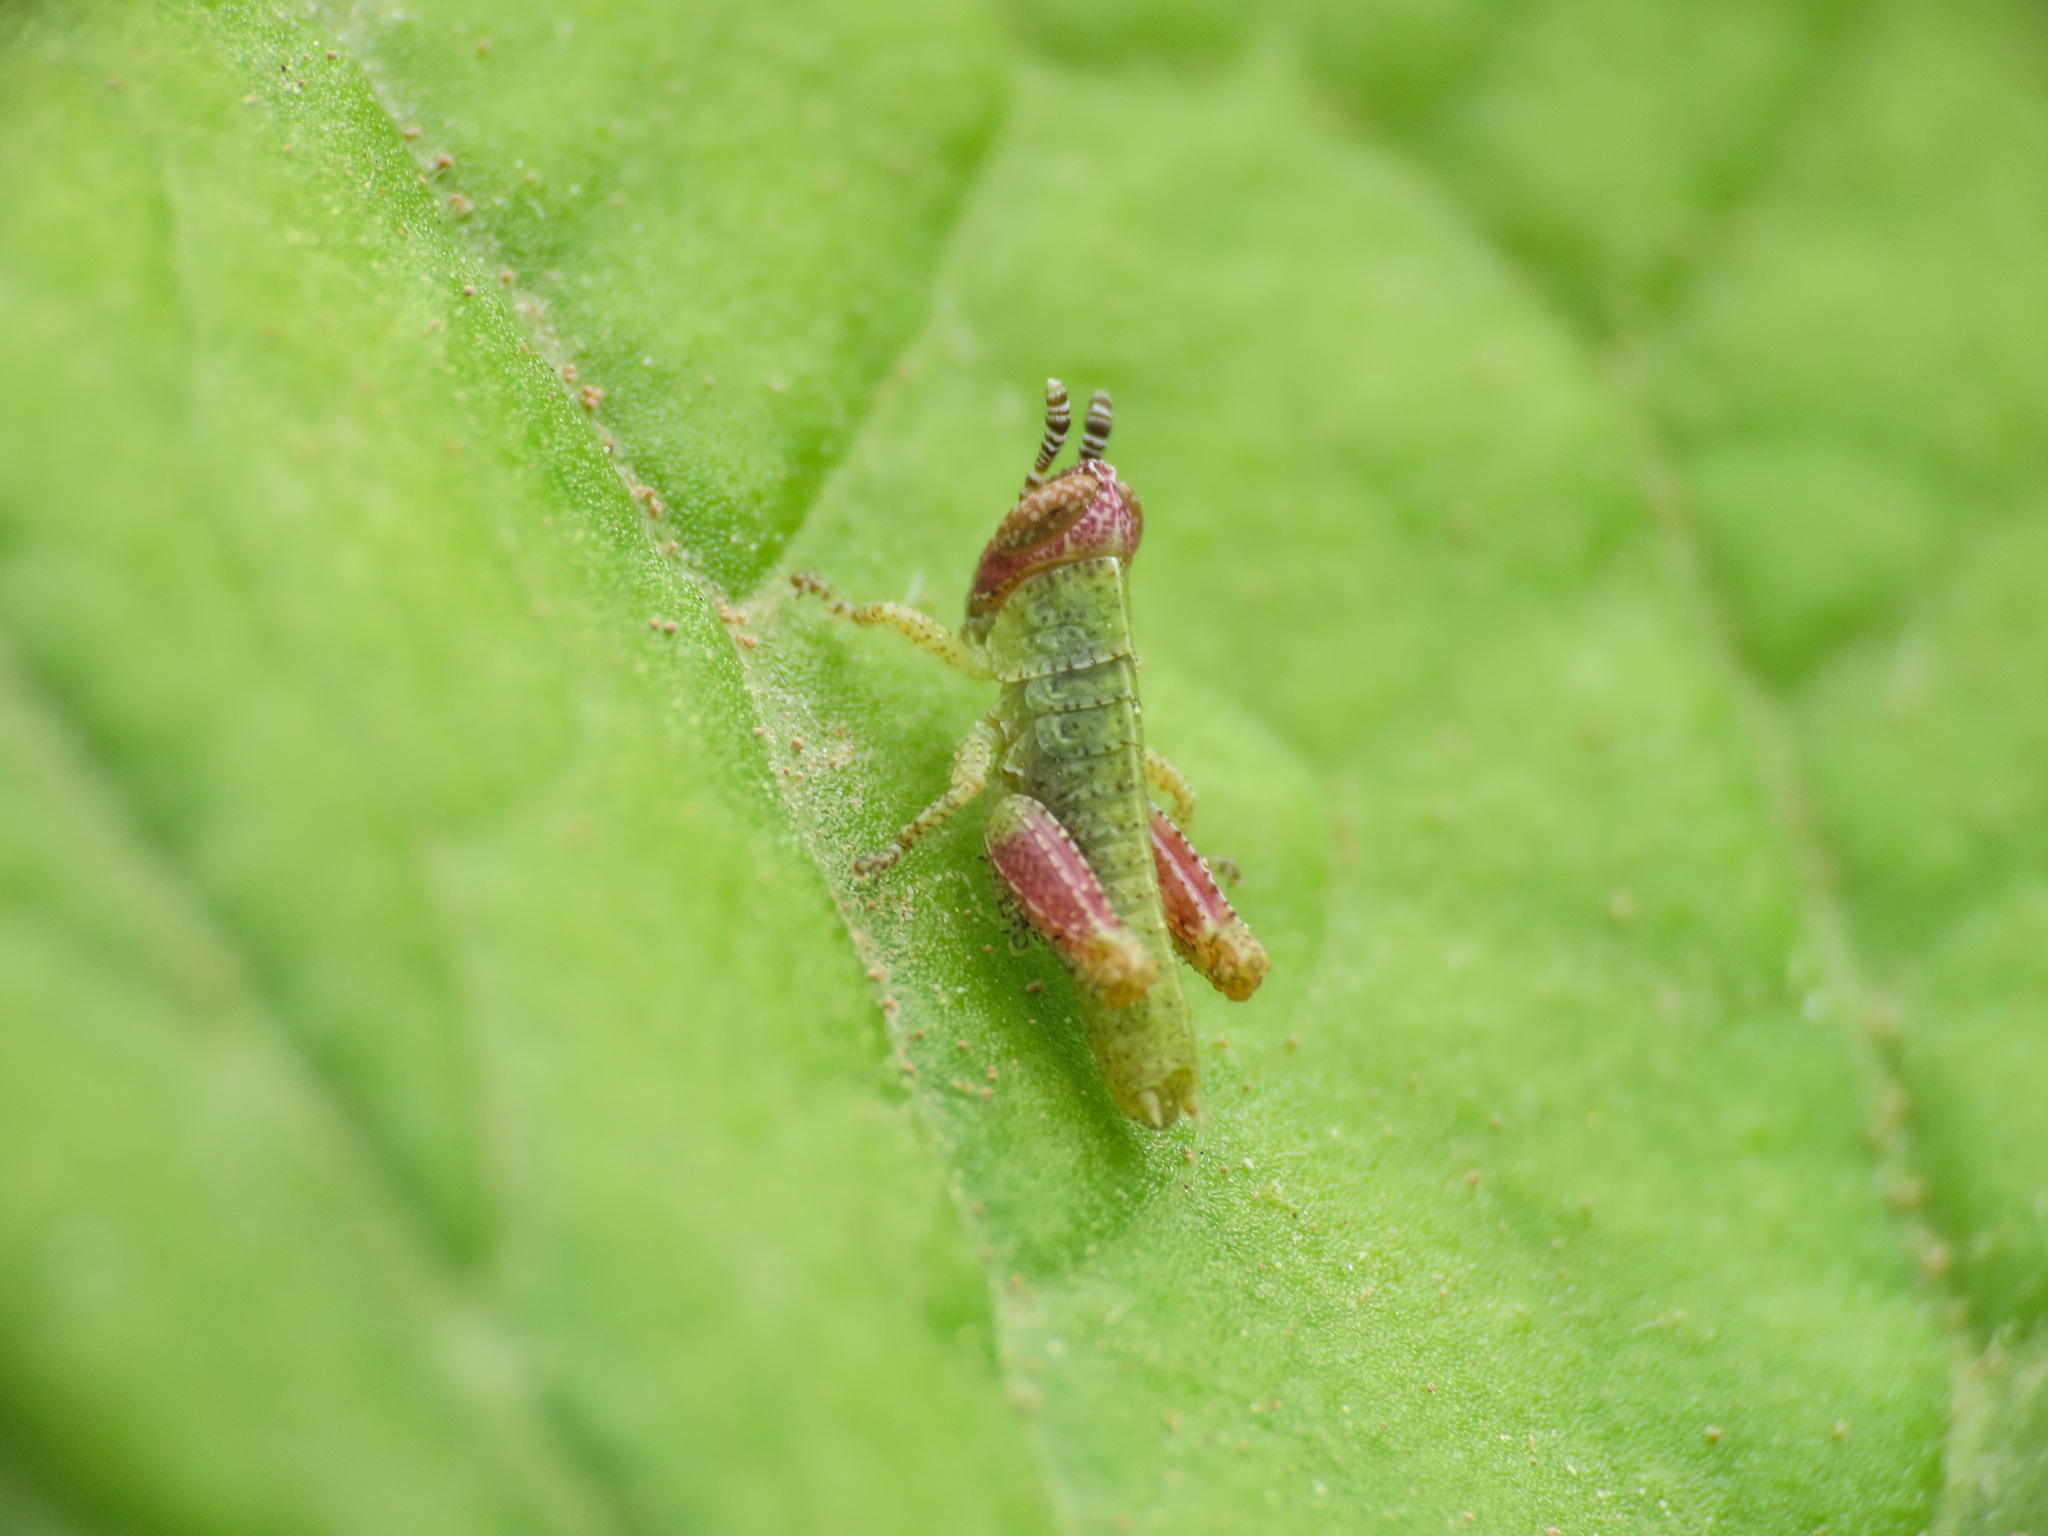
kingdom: Animalia
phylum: Arthropoda
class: Insecta
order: Orthoptera
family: Acrididae
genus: Pezotettix
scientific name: Pezotettix giornae
